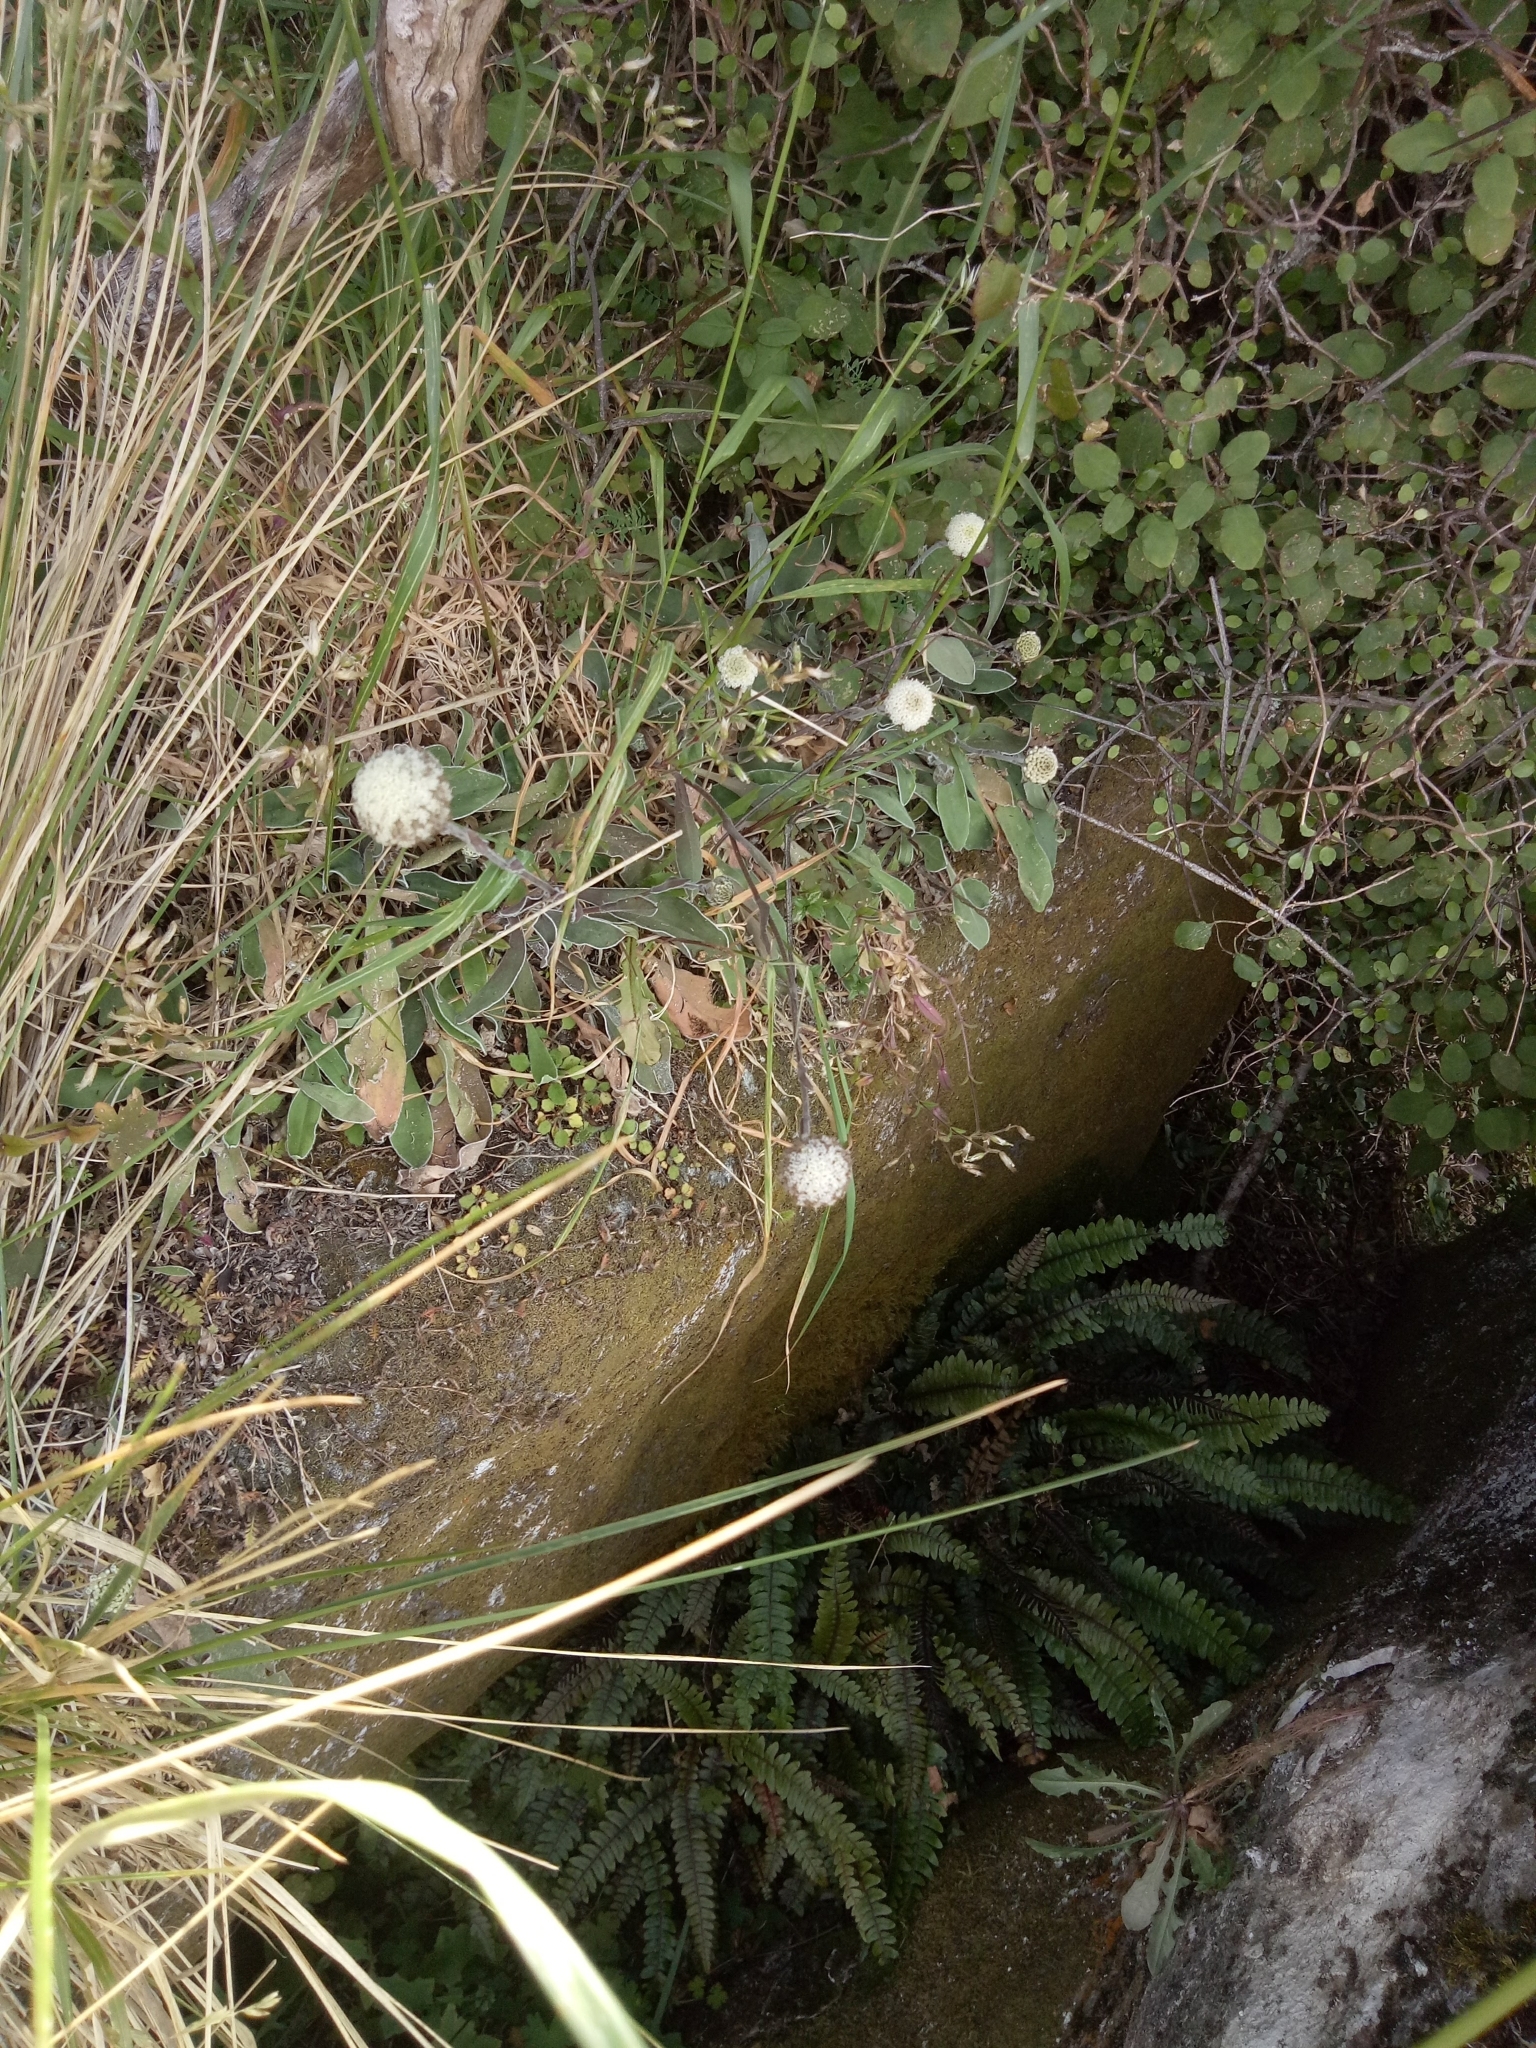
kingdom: Plantae
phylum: Tracheophyta
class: Magnoliopsida
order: Asterales
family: Asteraceae
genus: Craspedia
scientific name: Craspedia uniflora
